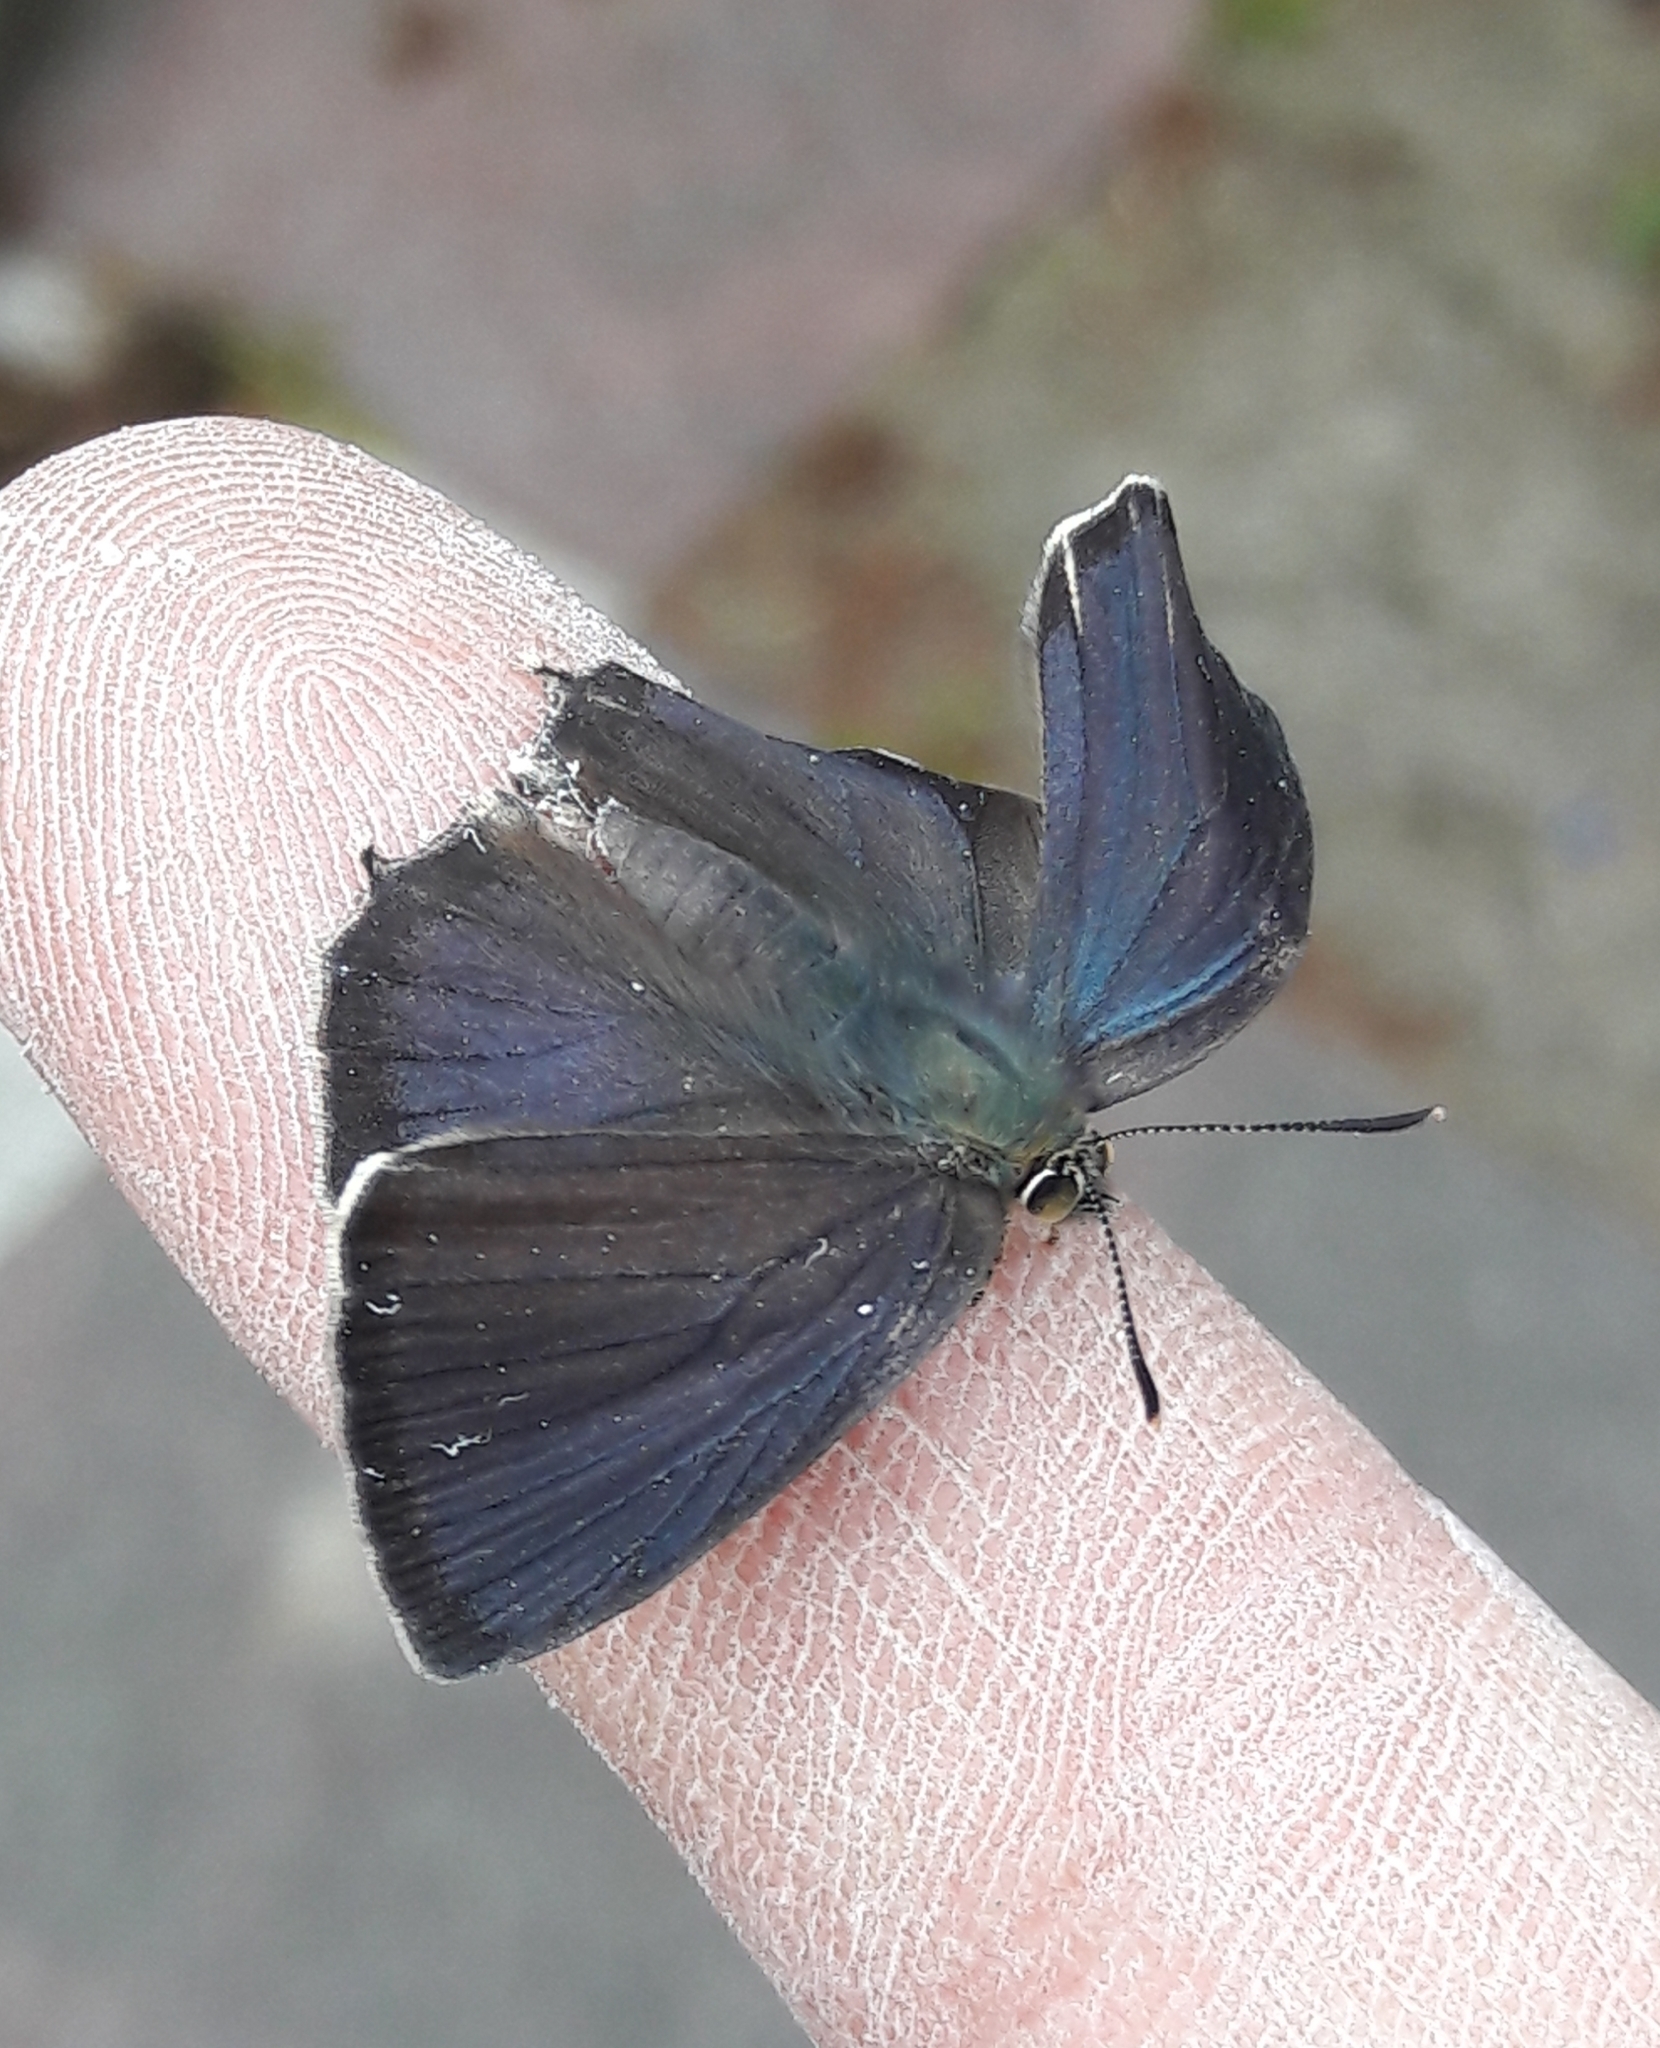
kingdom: Animalia
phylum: Arthropoda
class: Insecta
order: Lepidoptera
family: Lycaenidae
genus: Quercusia
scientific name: Quercusia quercus
